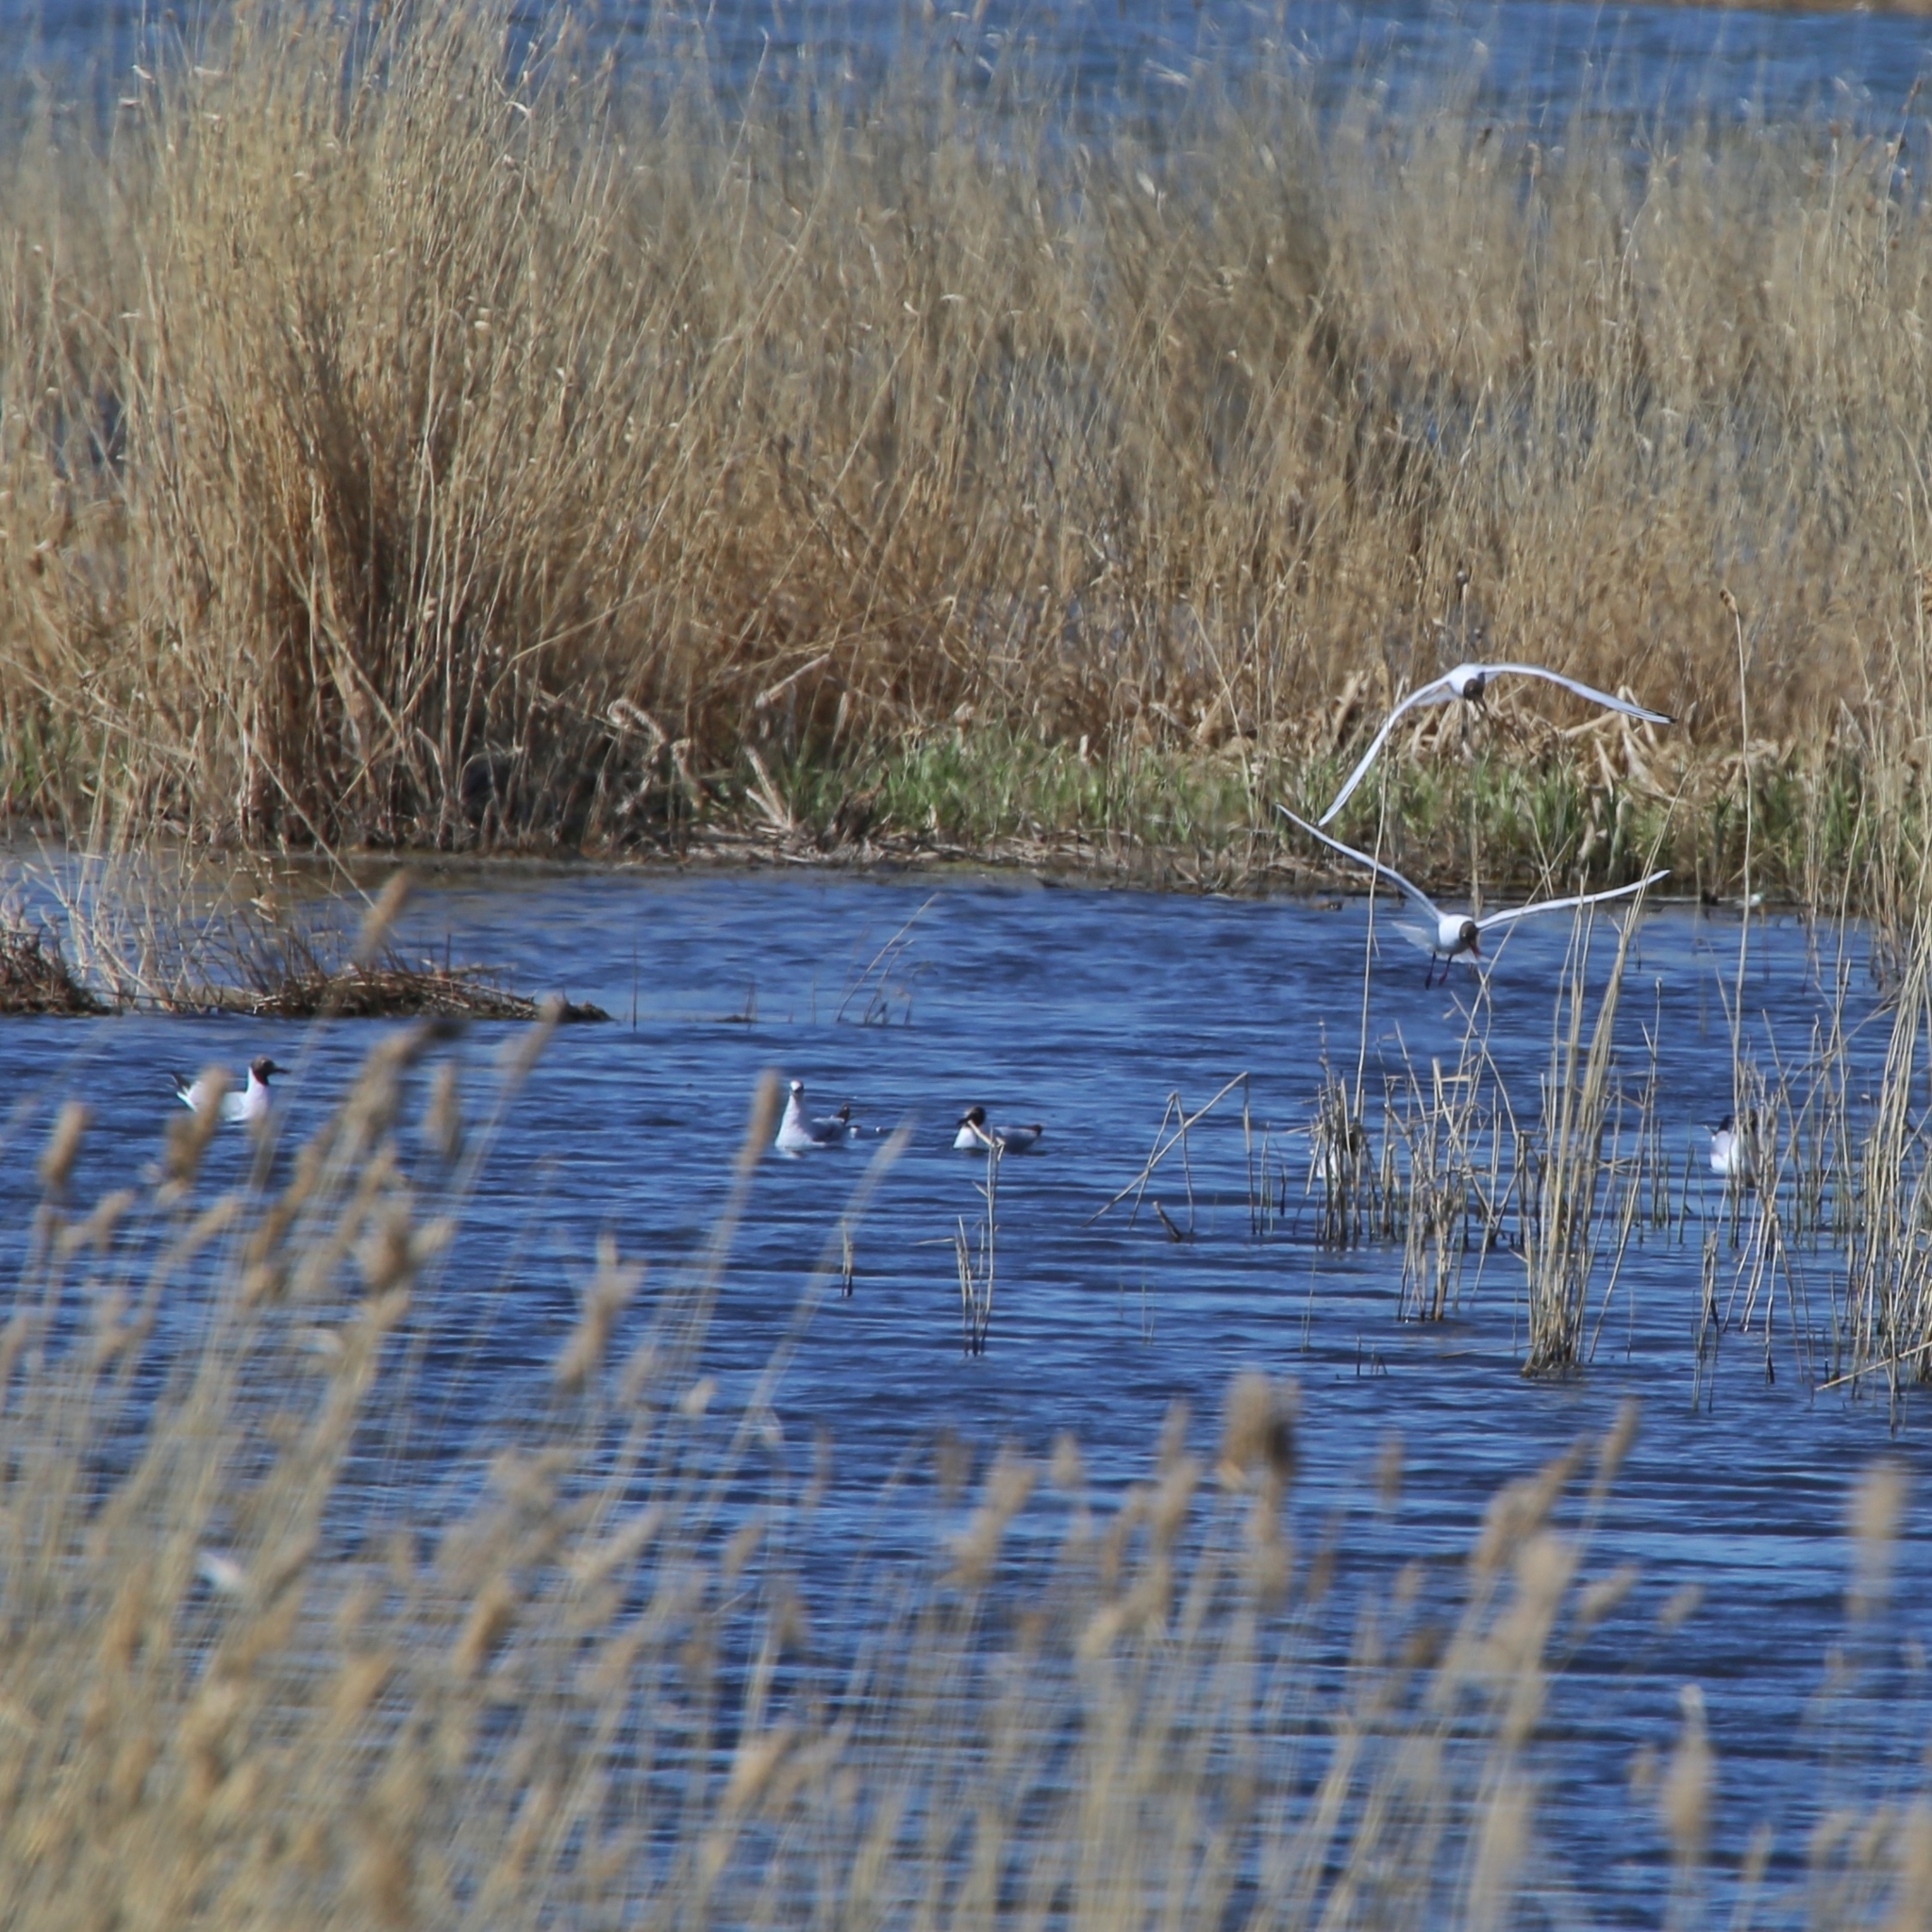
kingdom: Animalia
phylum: Chordata
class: Aves
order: Charadriiformes
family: Laridae
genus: Chroicocephalus
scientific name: Chroicocephalus ridibundus
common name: Black-headed gull
